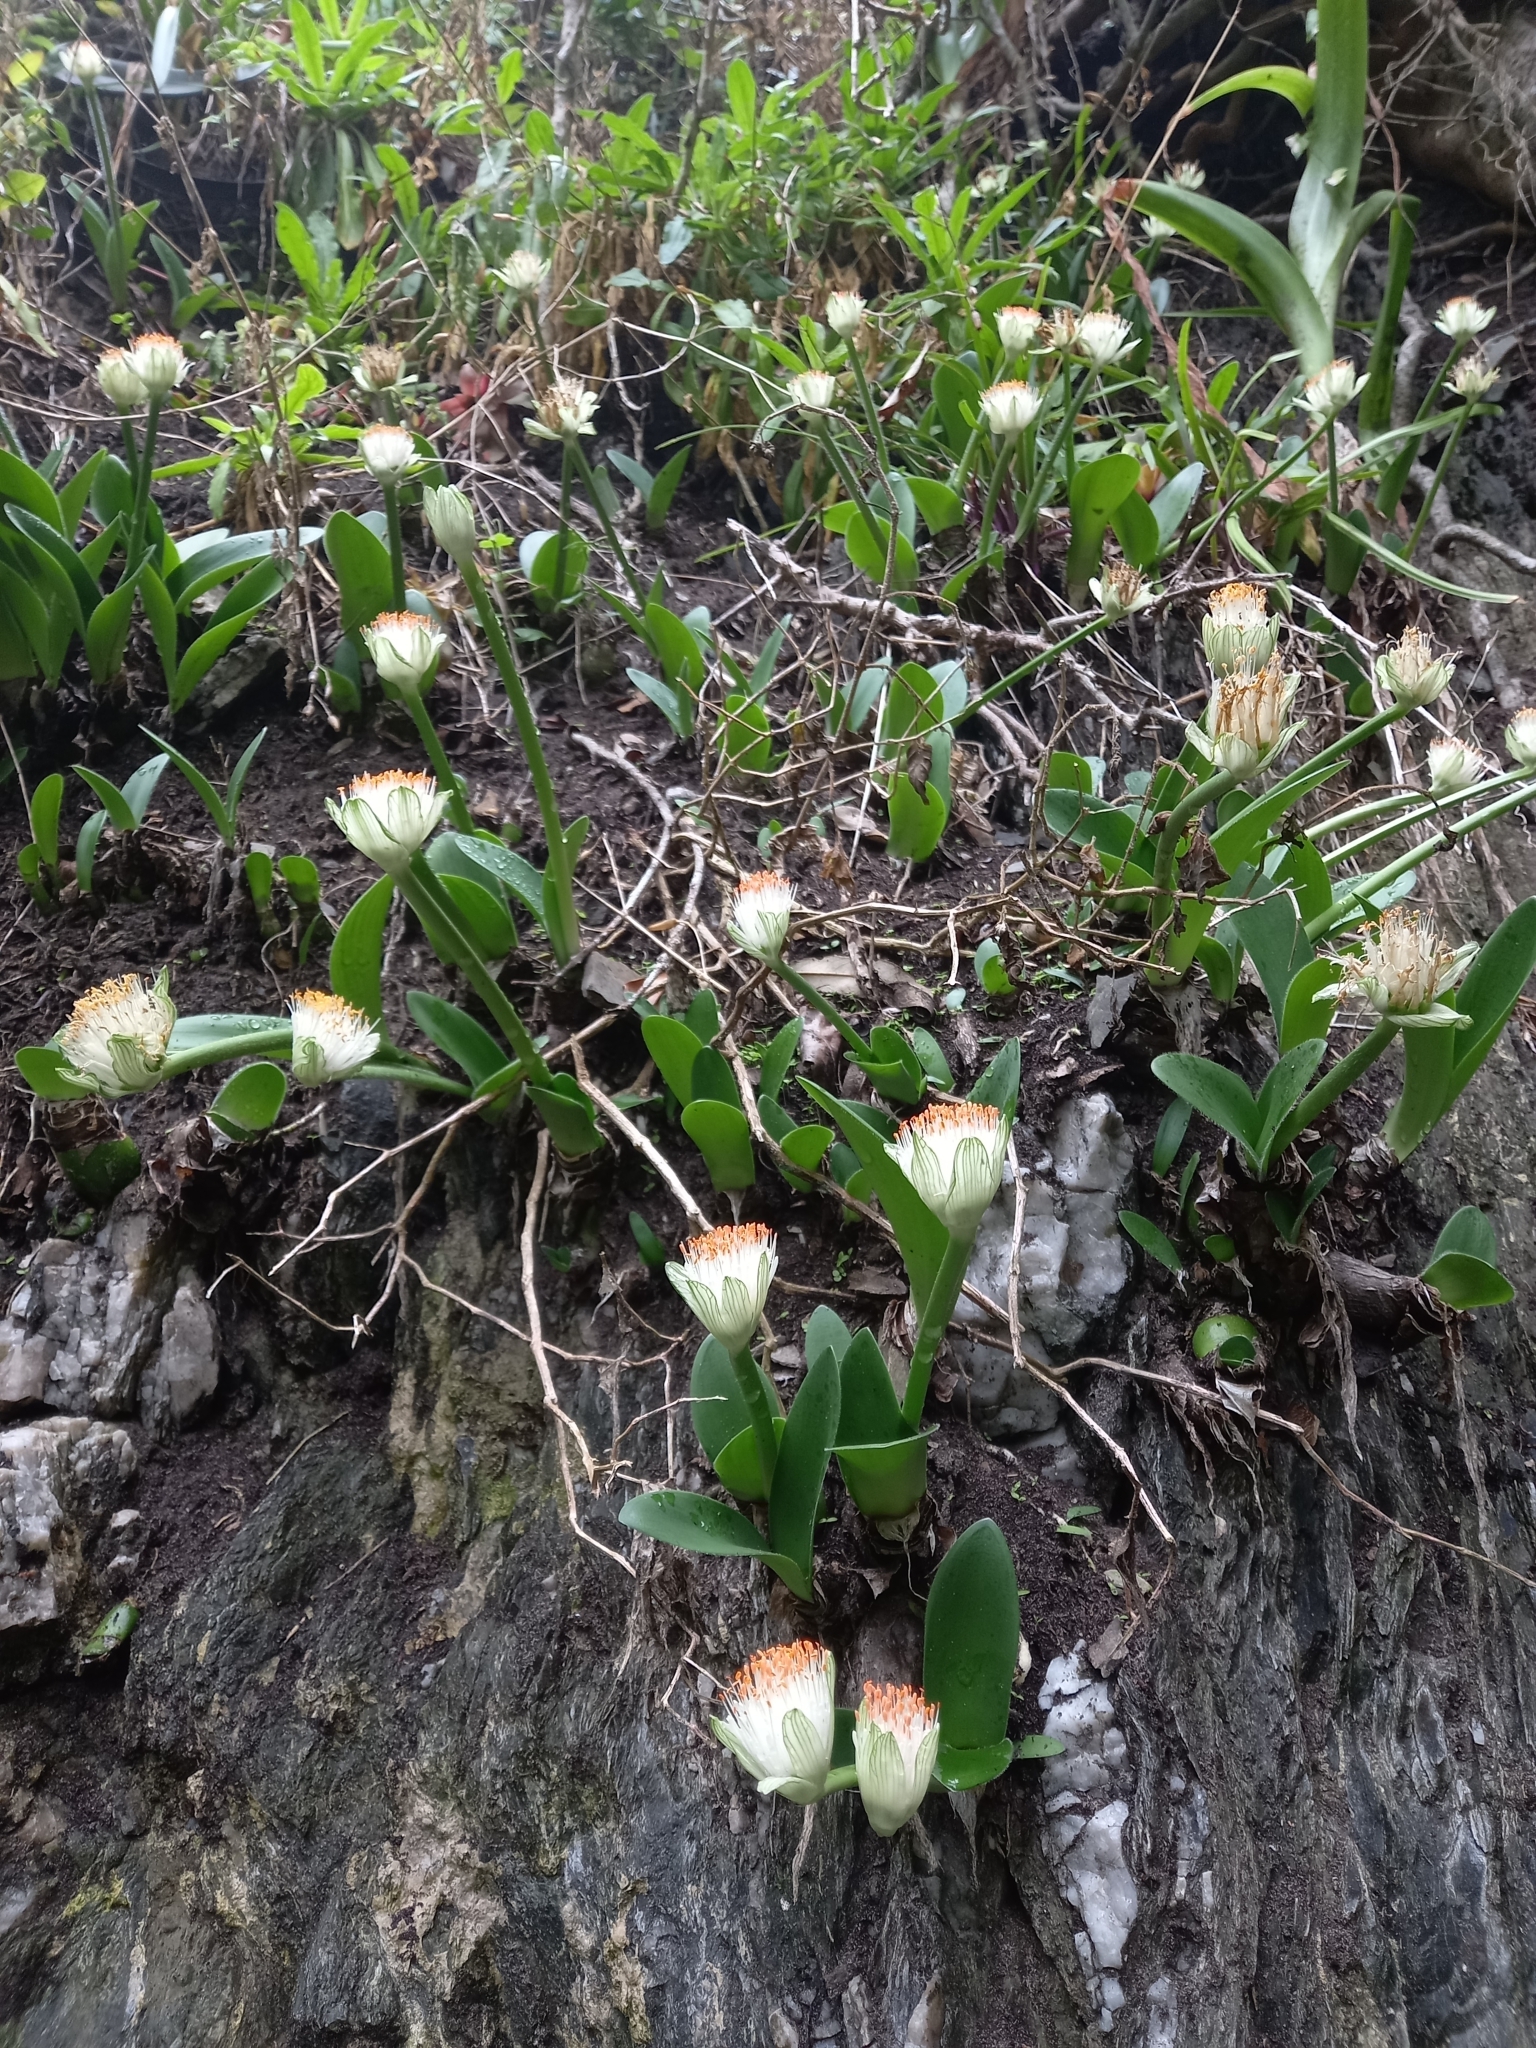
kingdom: Plantae
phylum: Tracheophyta
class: Liliopsida
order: Asparagales
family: Amaryllidaceae
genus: Haemanthus
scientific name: Haemanthus albiflos
